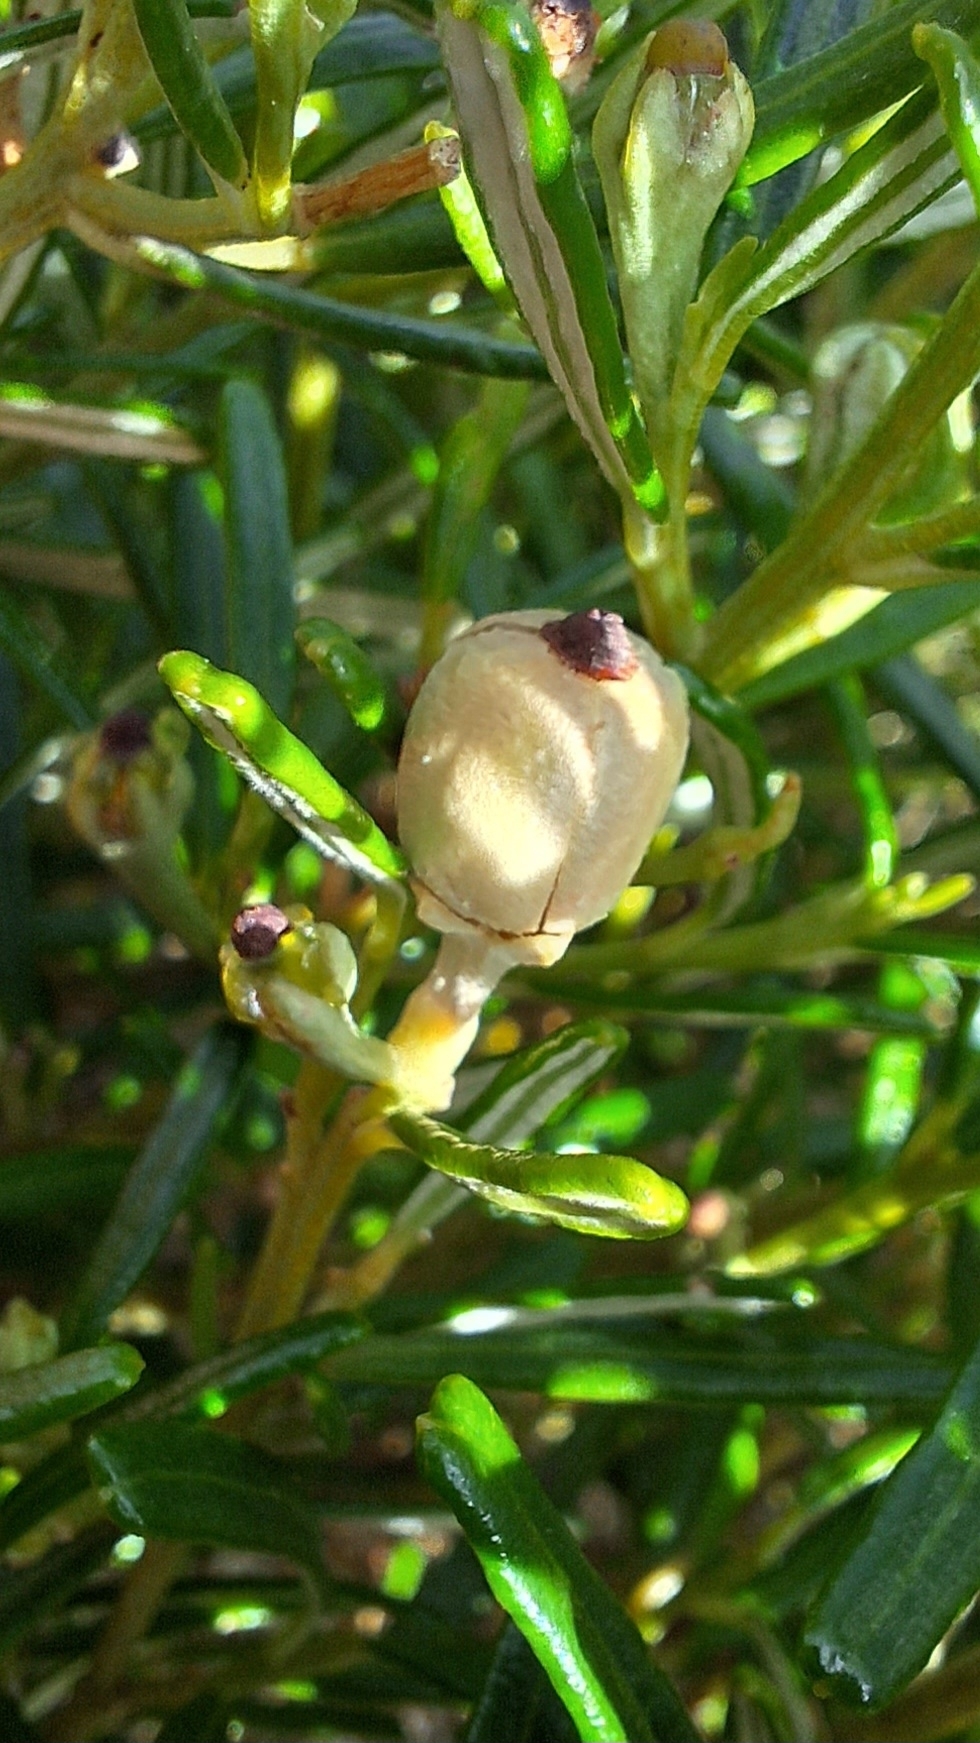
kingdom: Plantae
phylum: Tracheophyta
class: Magnoliopsida
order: Malpighiales
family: Euphorbiaceae
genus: Beyeria
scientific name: Beyeria lechenaultii
